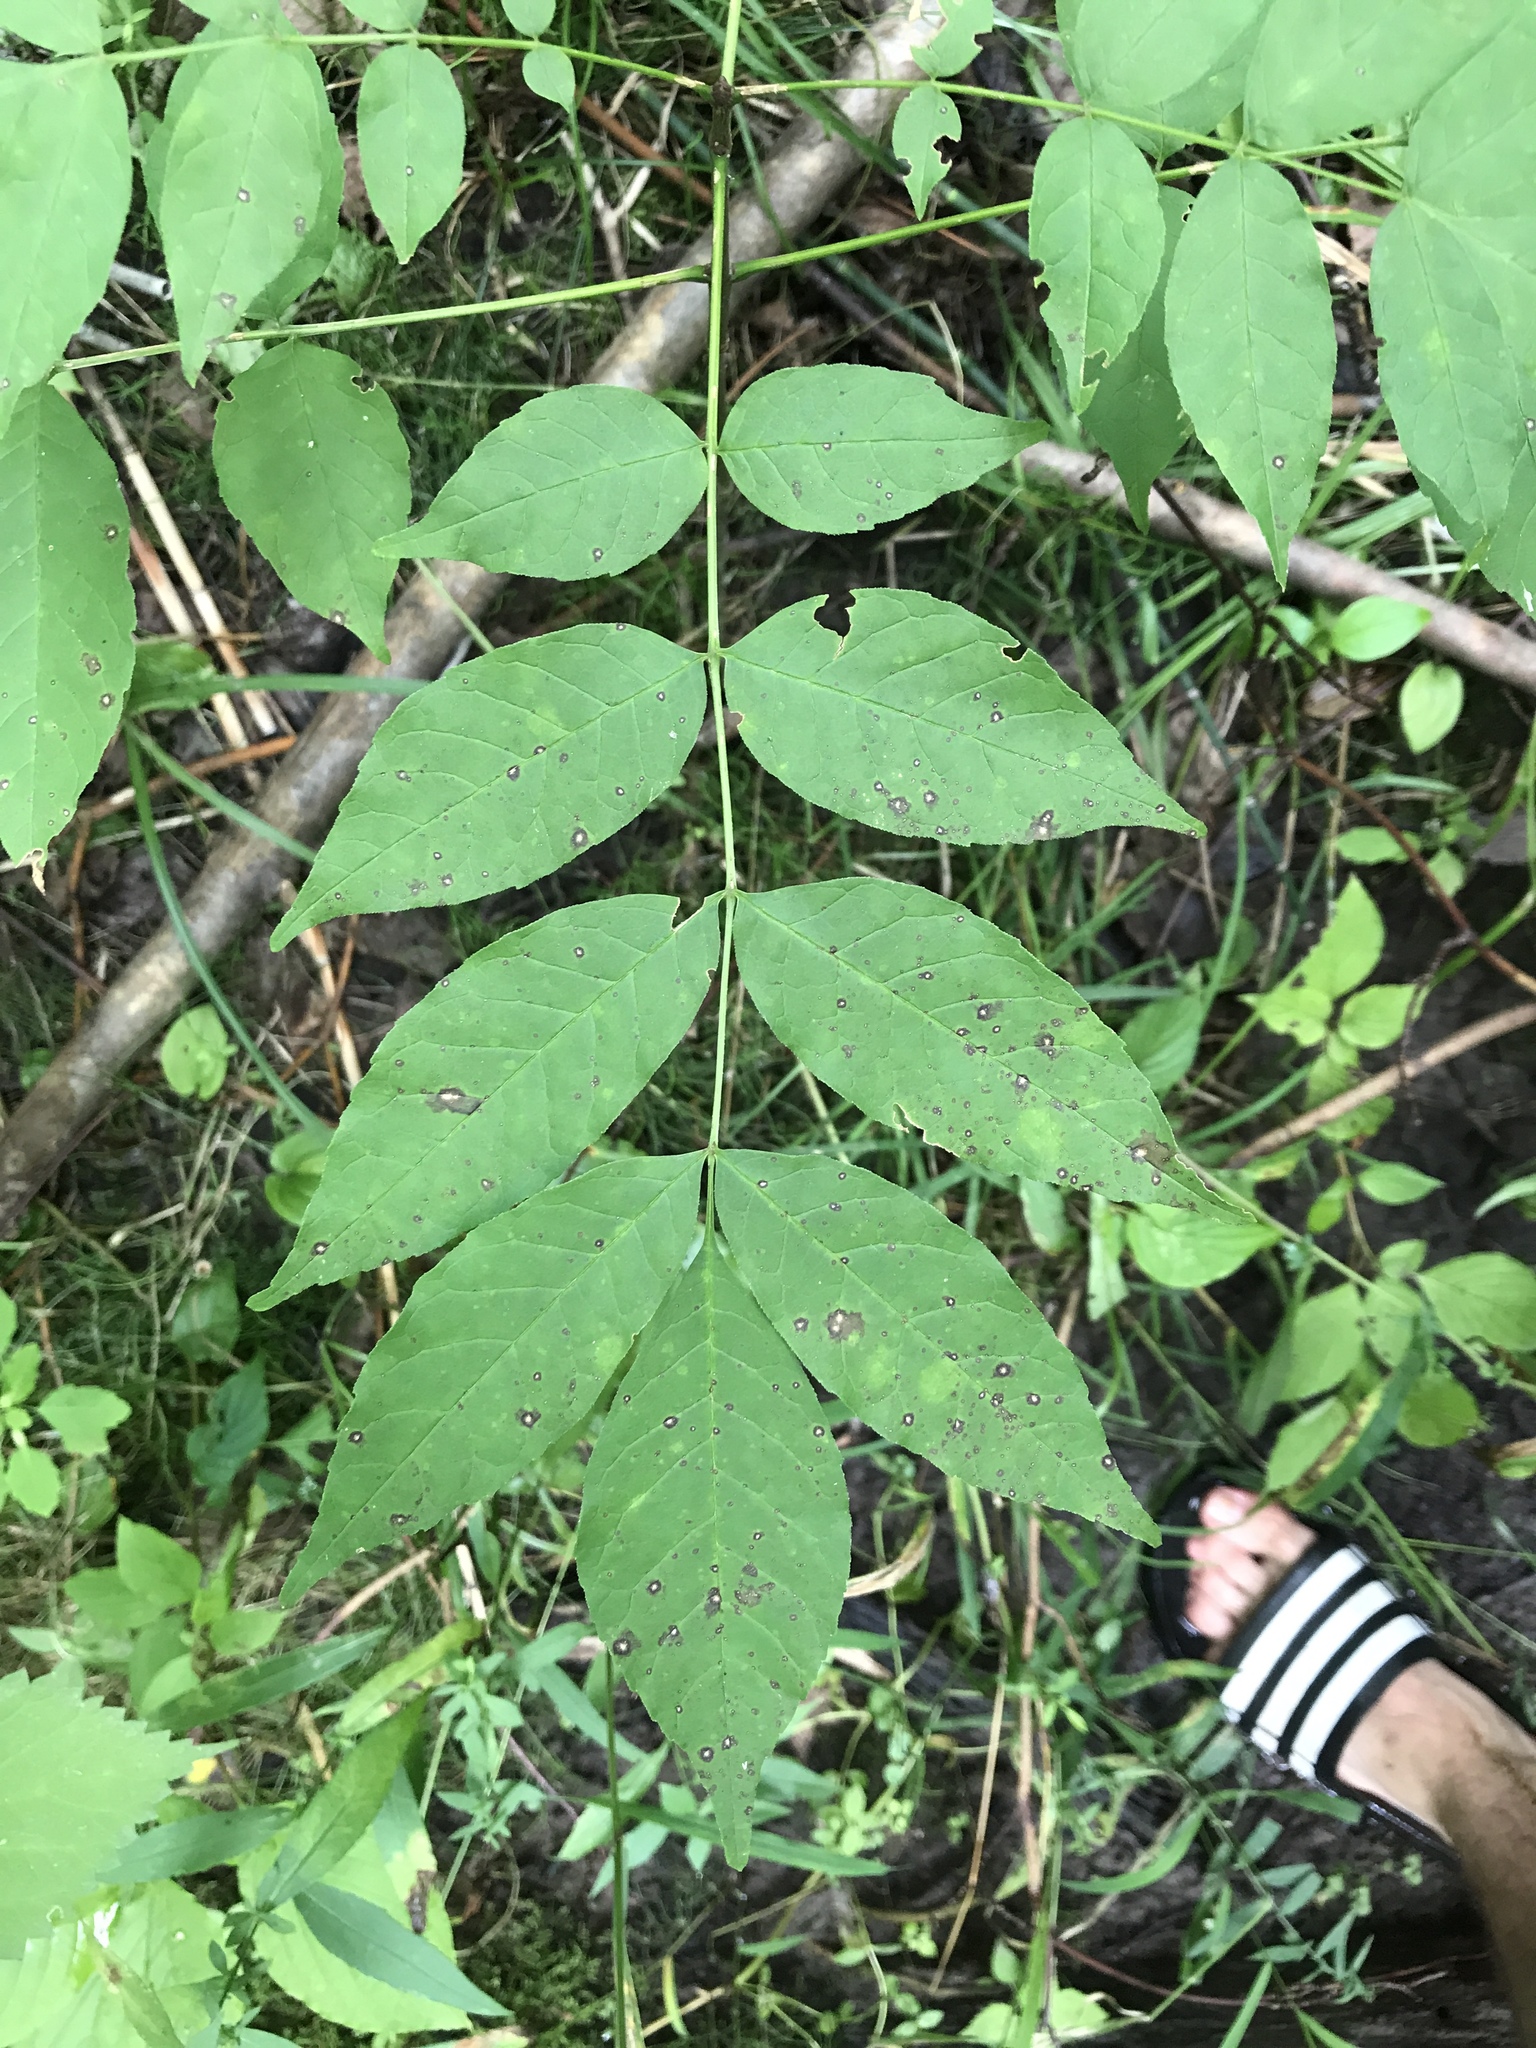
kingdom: Plantae
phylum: Tracheophyta
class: Magnoliopsida
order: Lamiales
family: Oleaceae
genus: Fraxinus
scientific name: Fraxinus nigra
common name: Black ash
